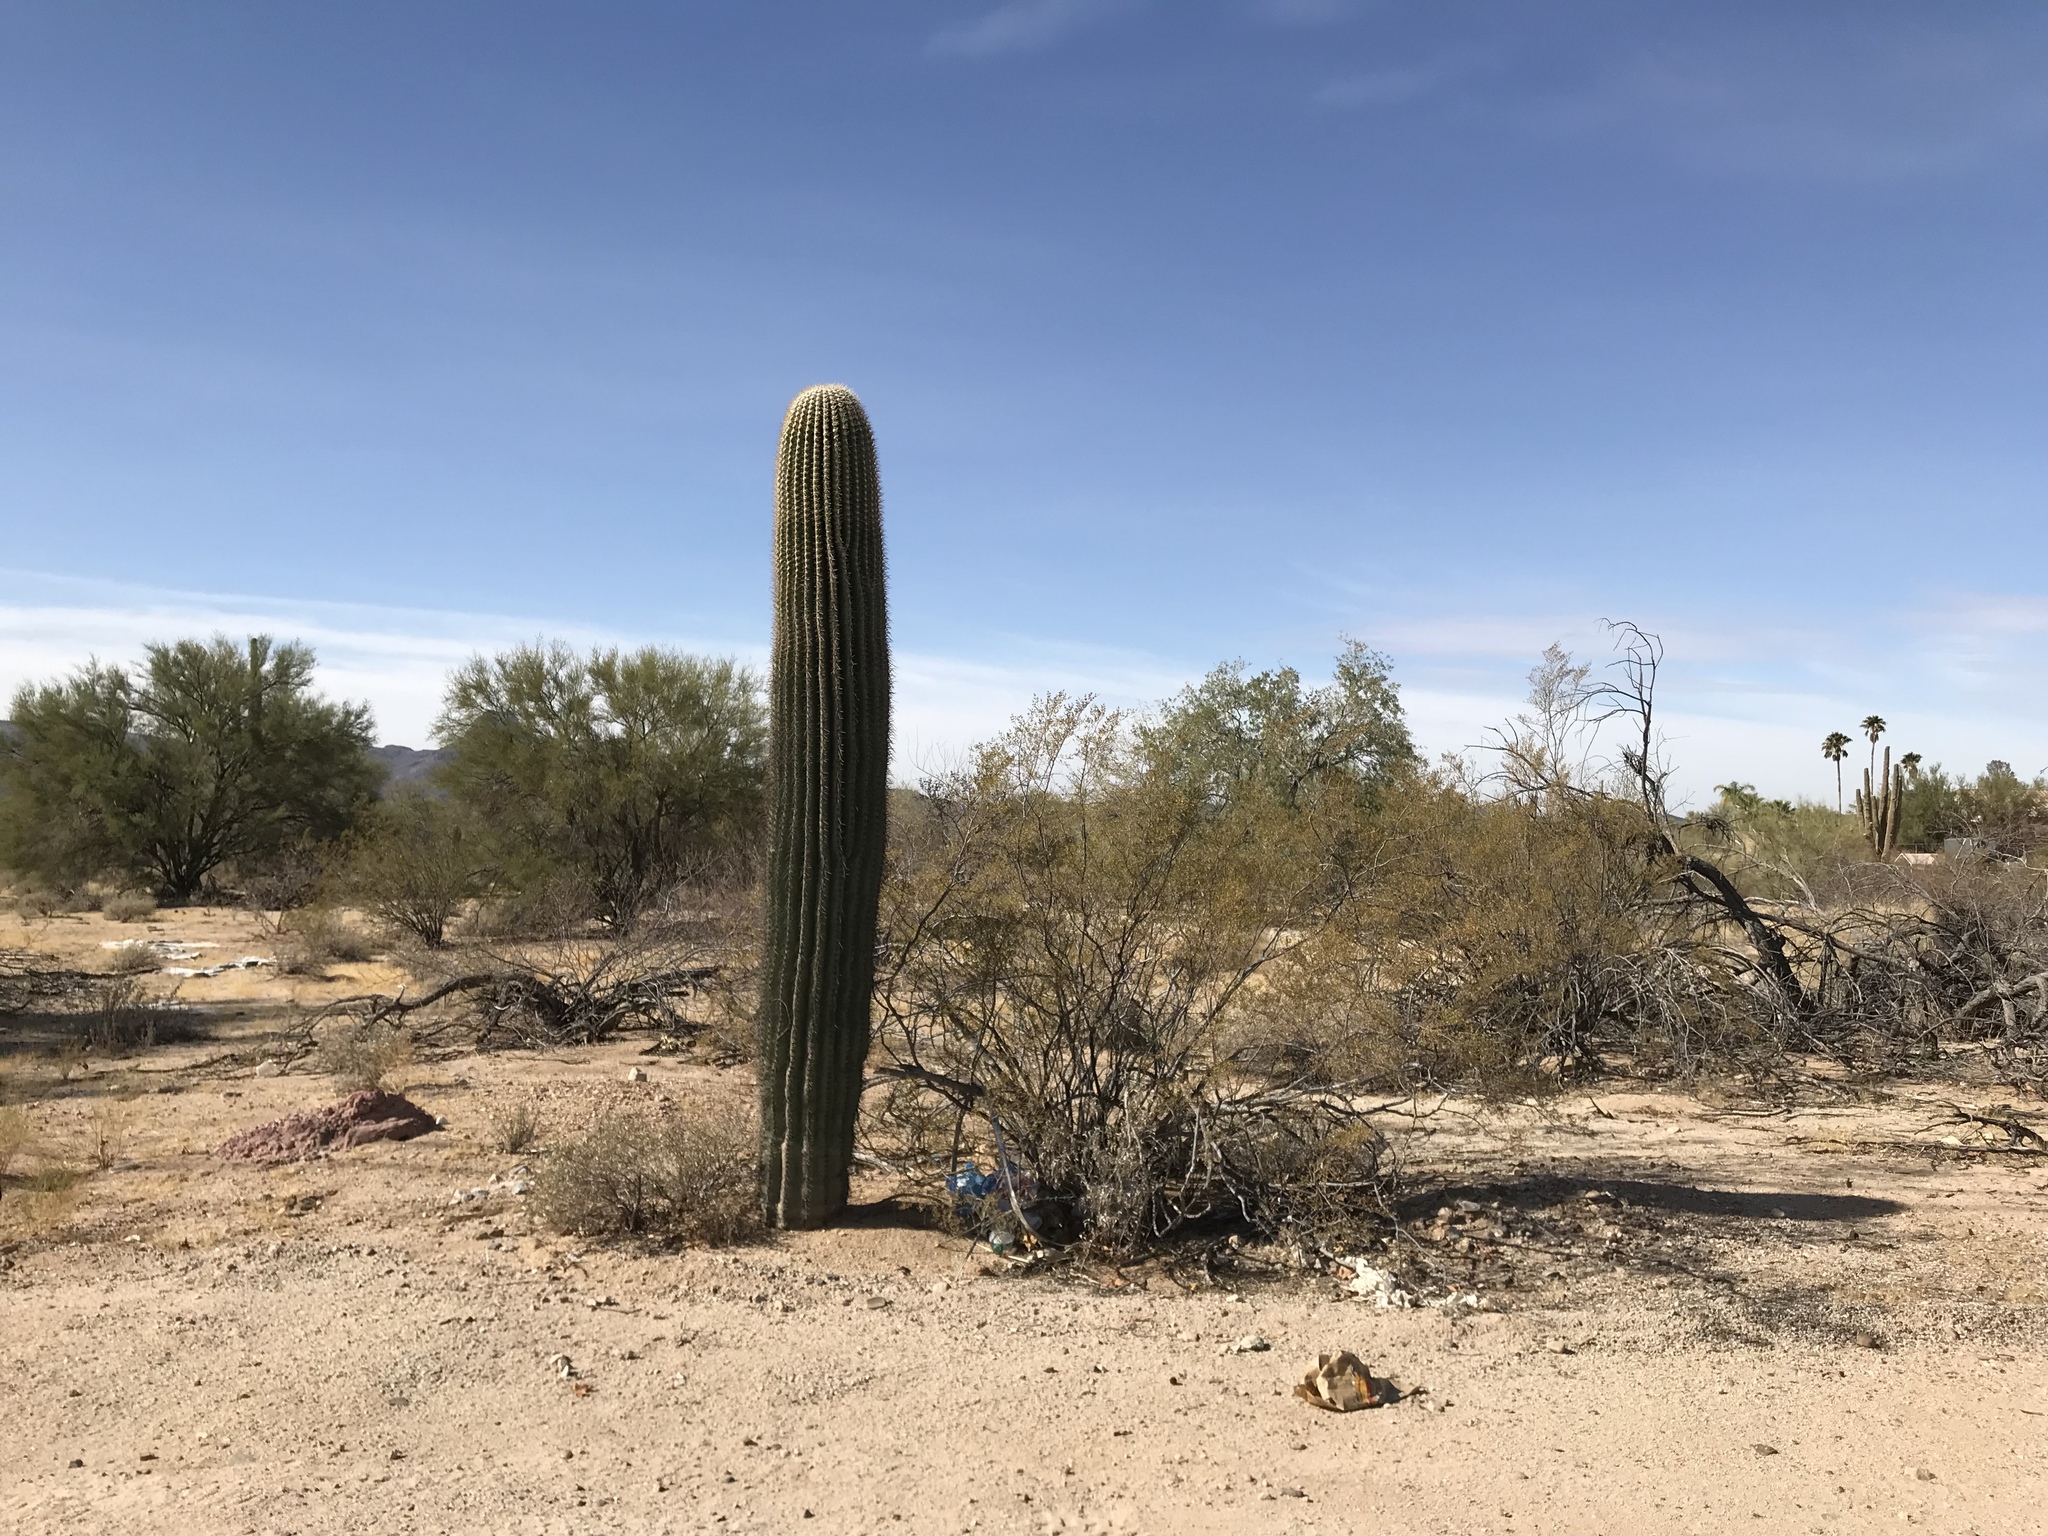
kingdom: Plantae
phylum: Tracheophyta
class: Magnoliopsida
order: Caryophyllales
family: Cactaceae
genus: Carnegiea
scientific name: Carnegiea gigantea
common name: Saguaro
